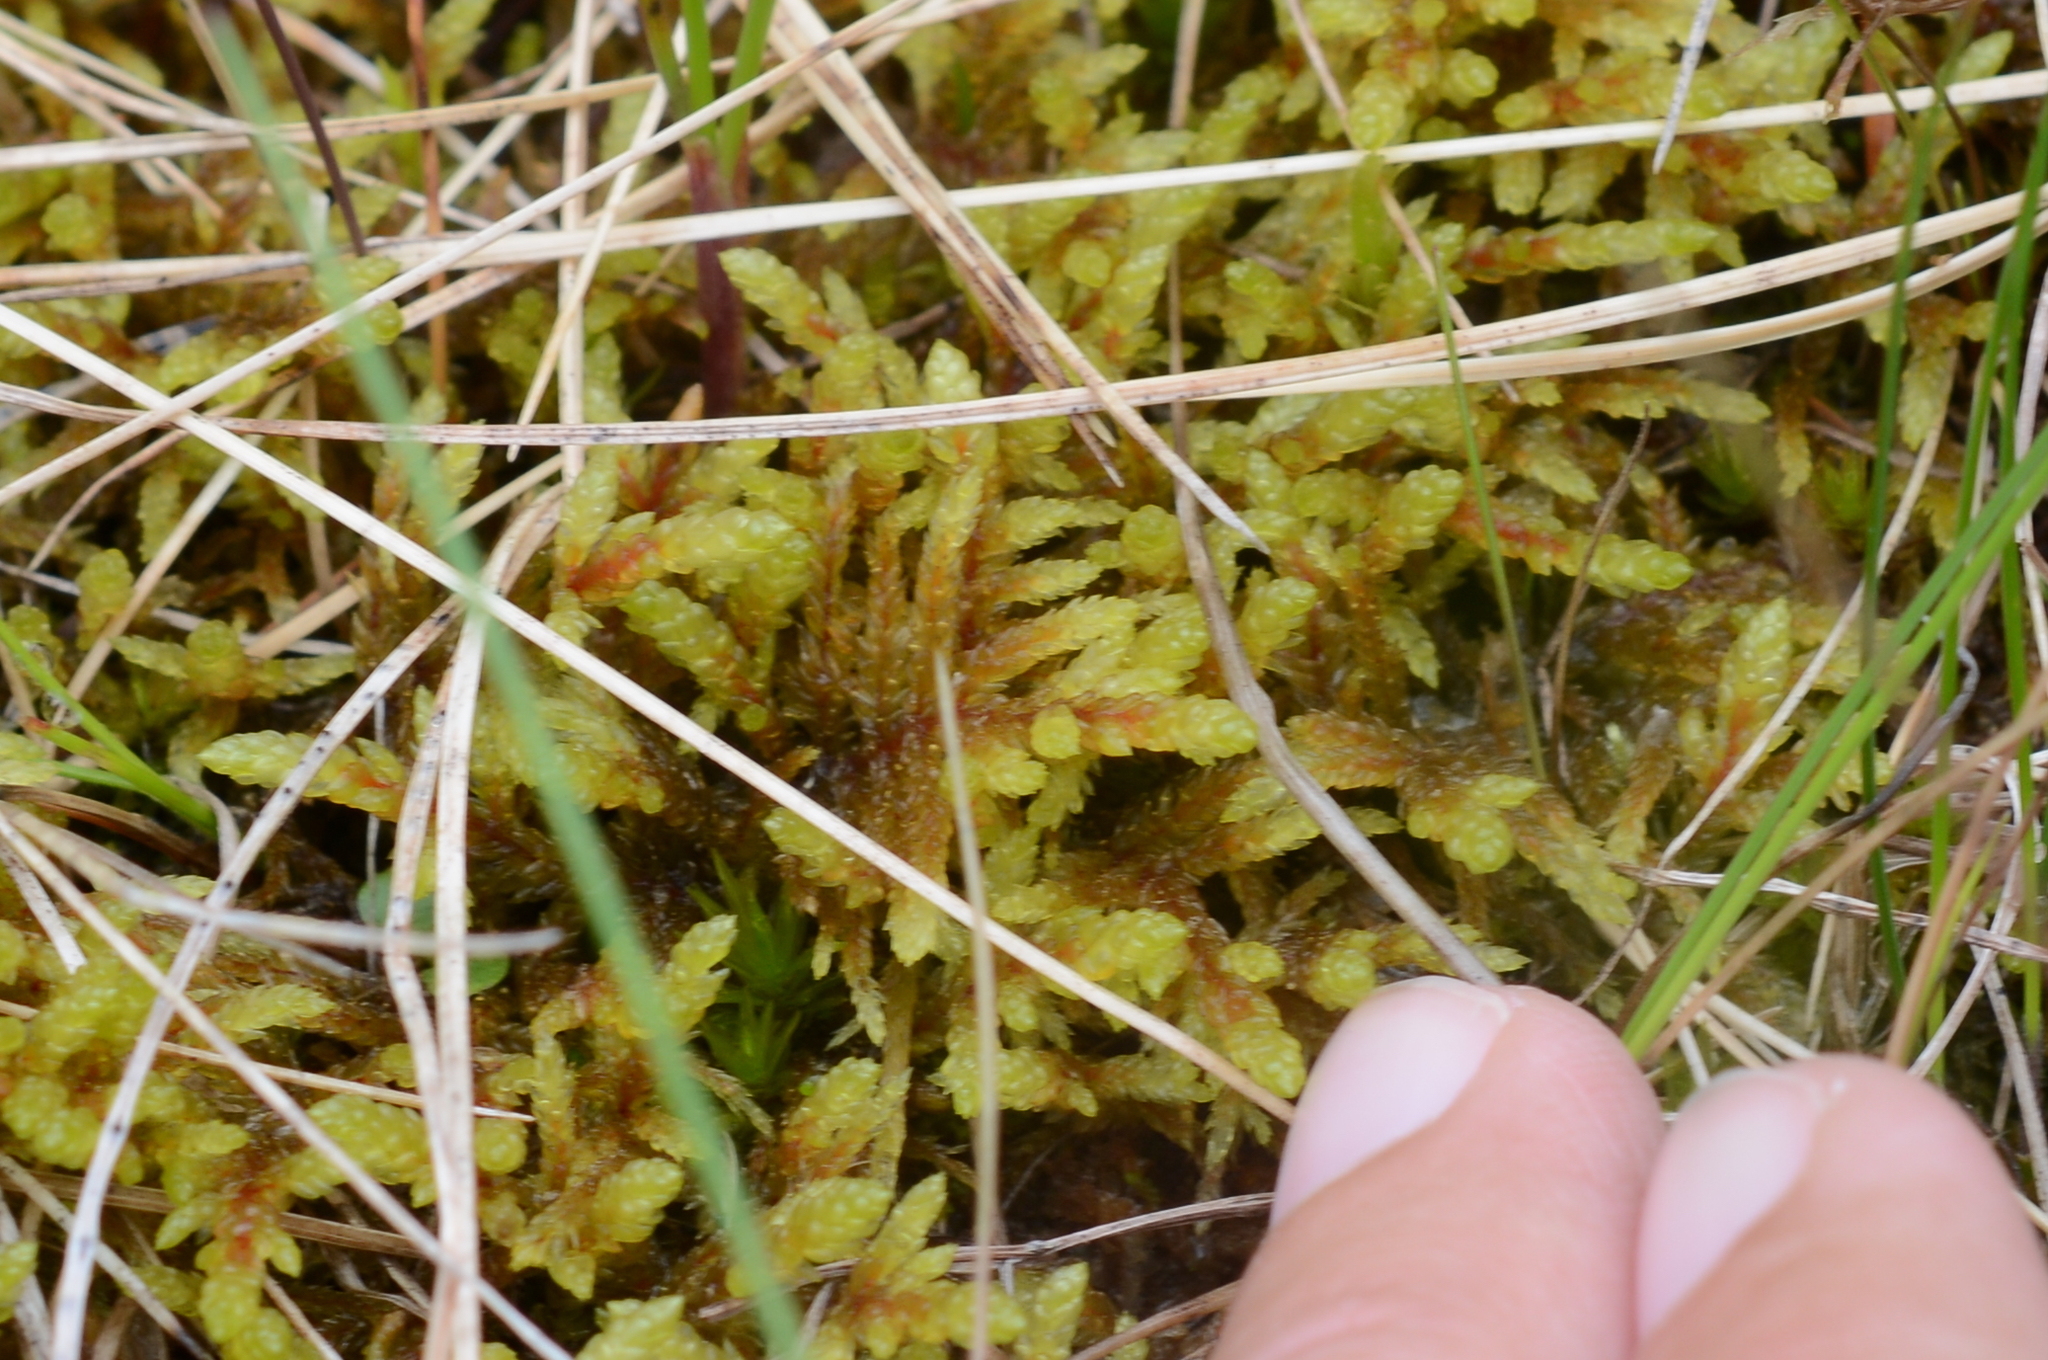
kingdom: Plantae
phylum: Bryophyta
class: Bryopsida
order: Hypnales
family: Hylocomiaceae
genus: Pleurozium
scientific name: Pleurozium schreberi
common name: Red-stemmed feather moss
